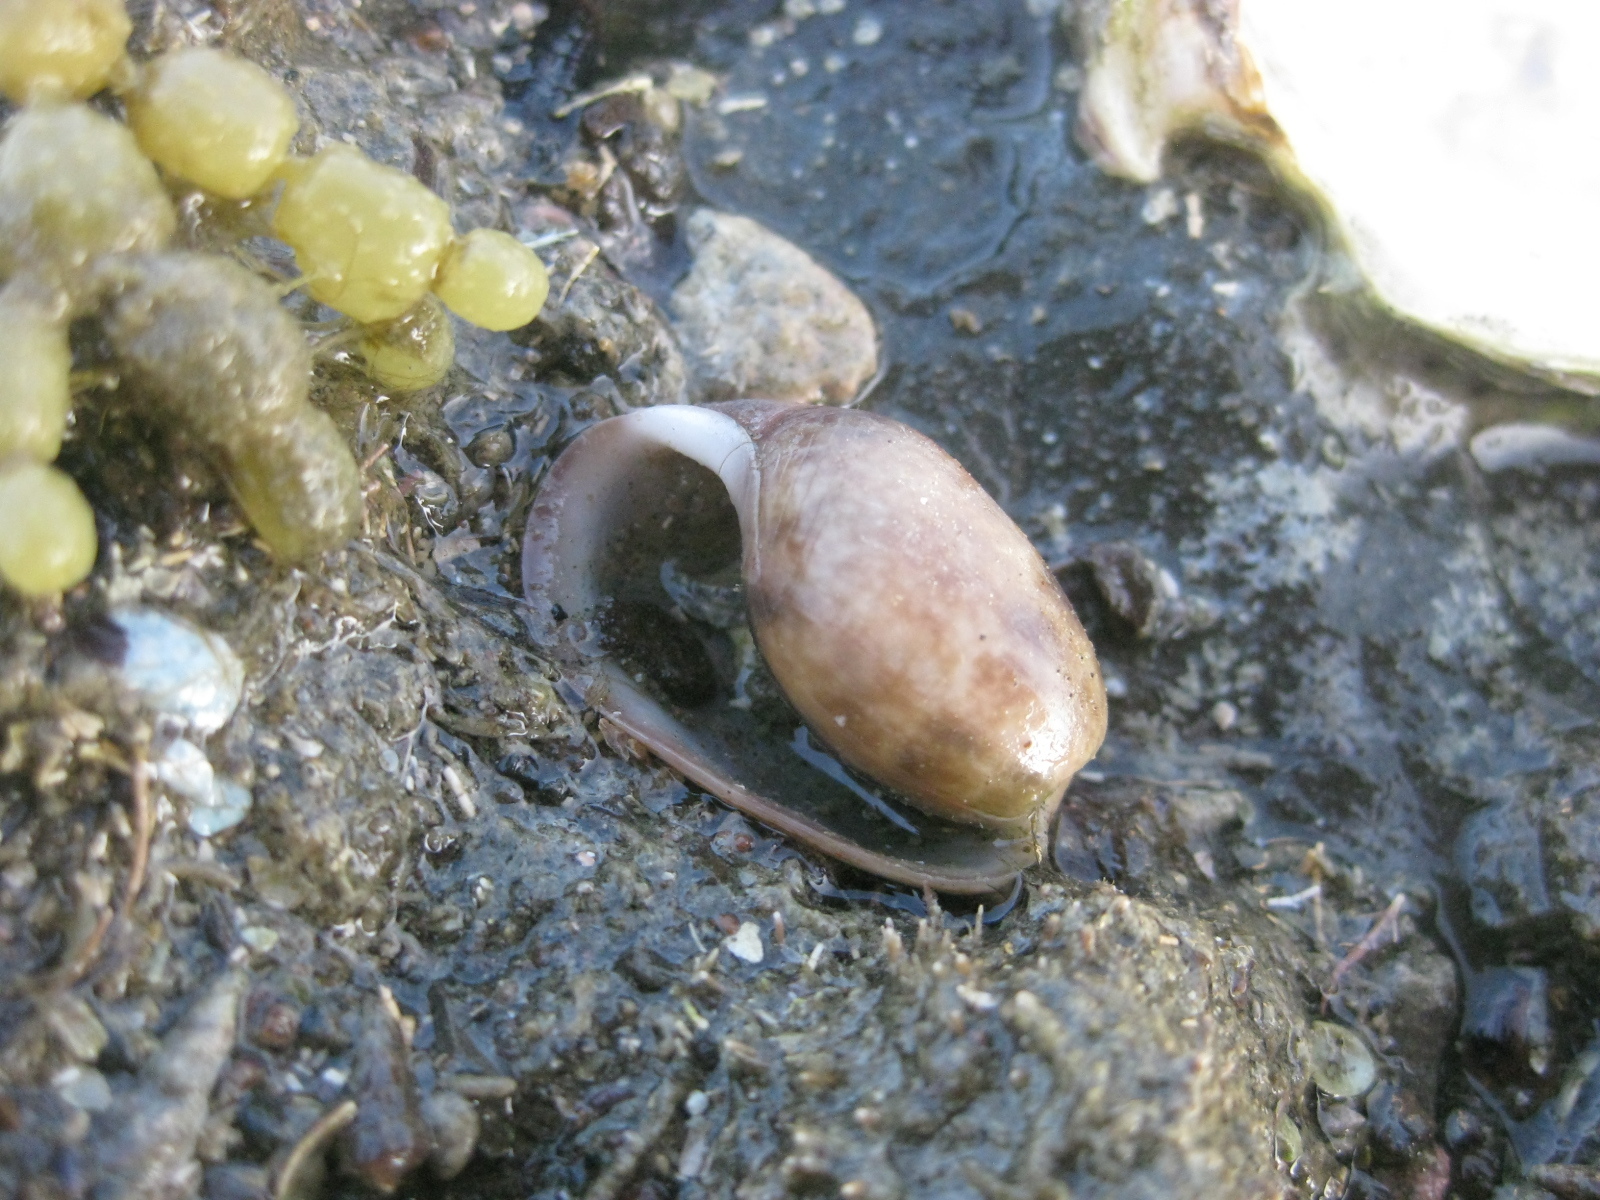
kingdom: Animalia
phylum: Mollusca
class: Gastropoda
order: Cephalaspidea
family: Bullidae
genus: Bulla
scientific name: Bulla quoyii
